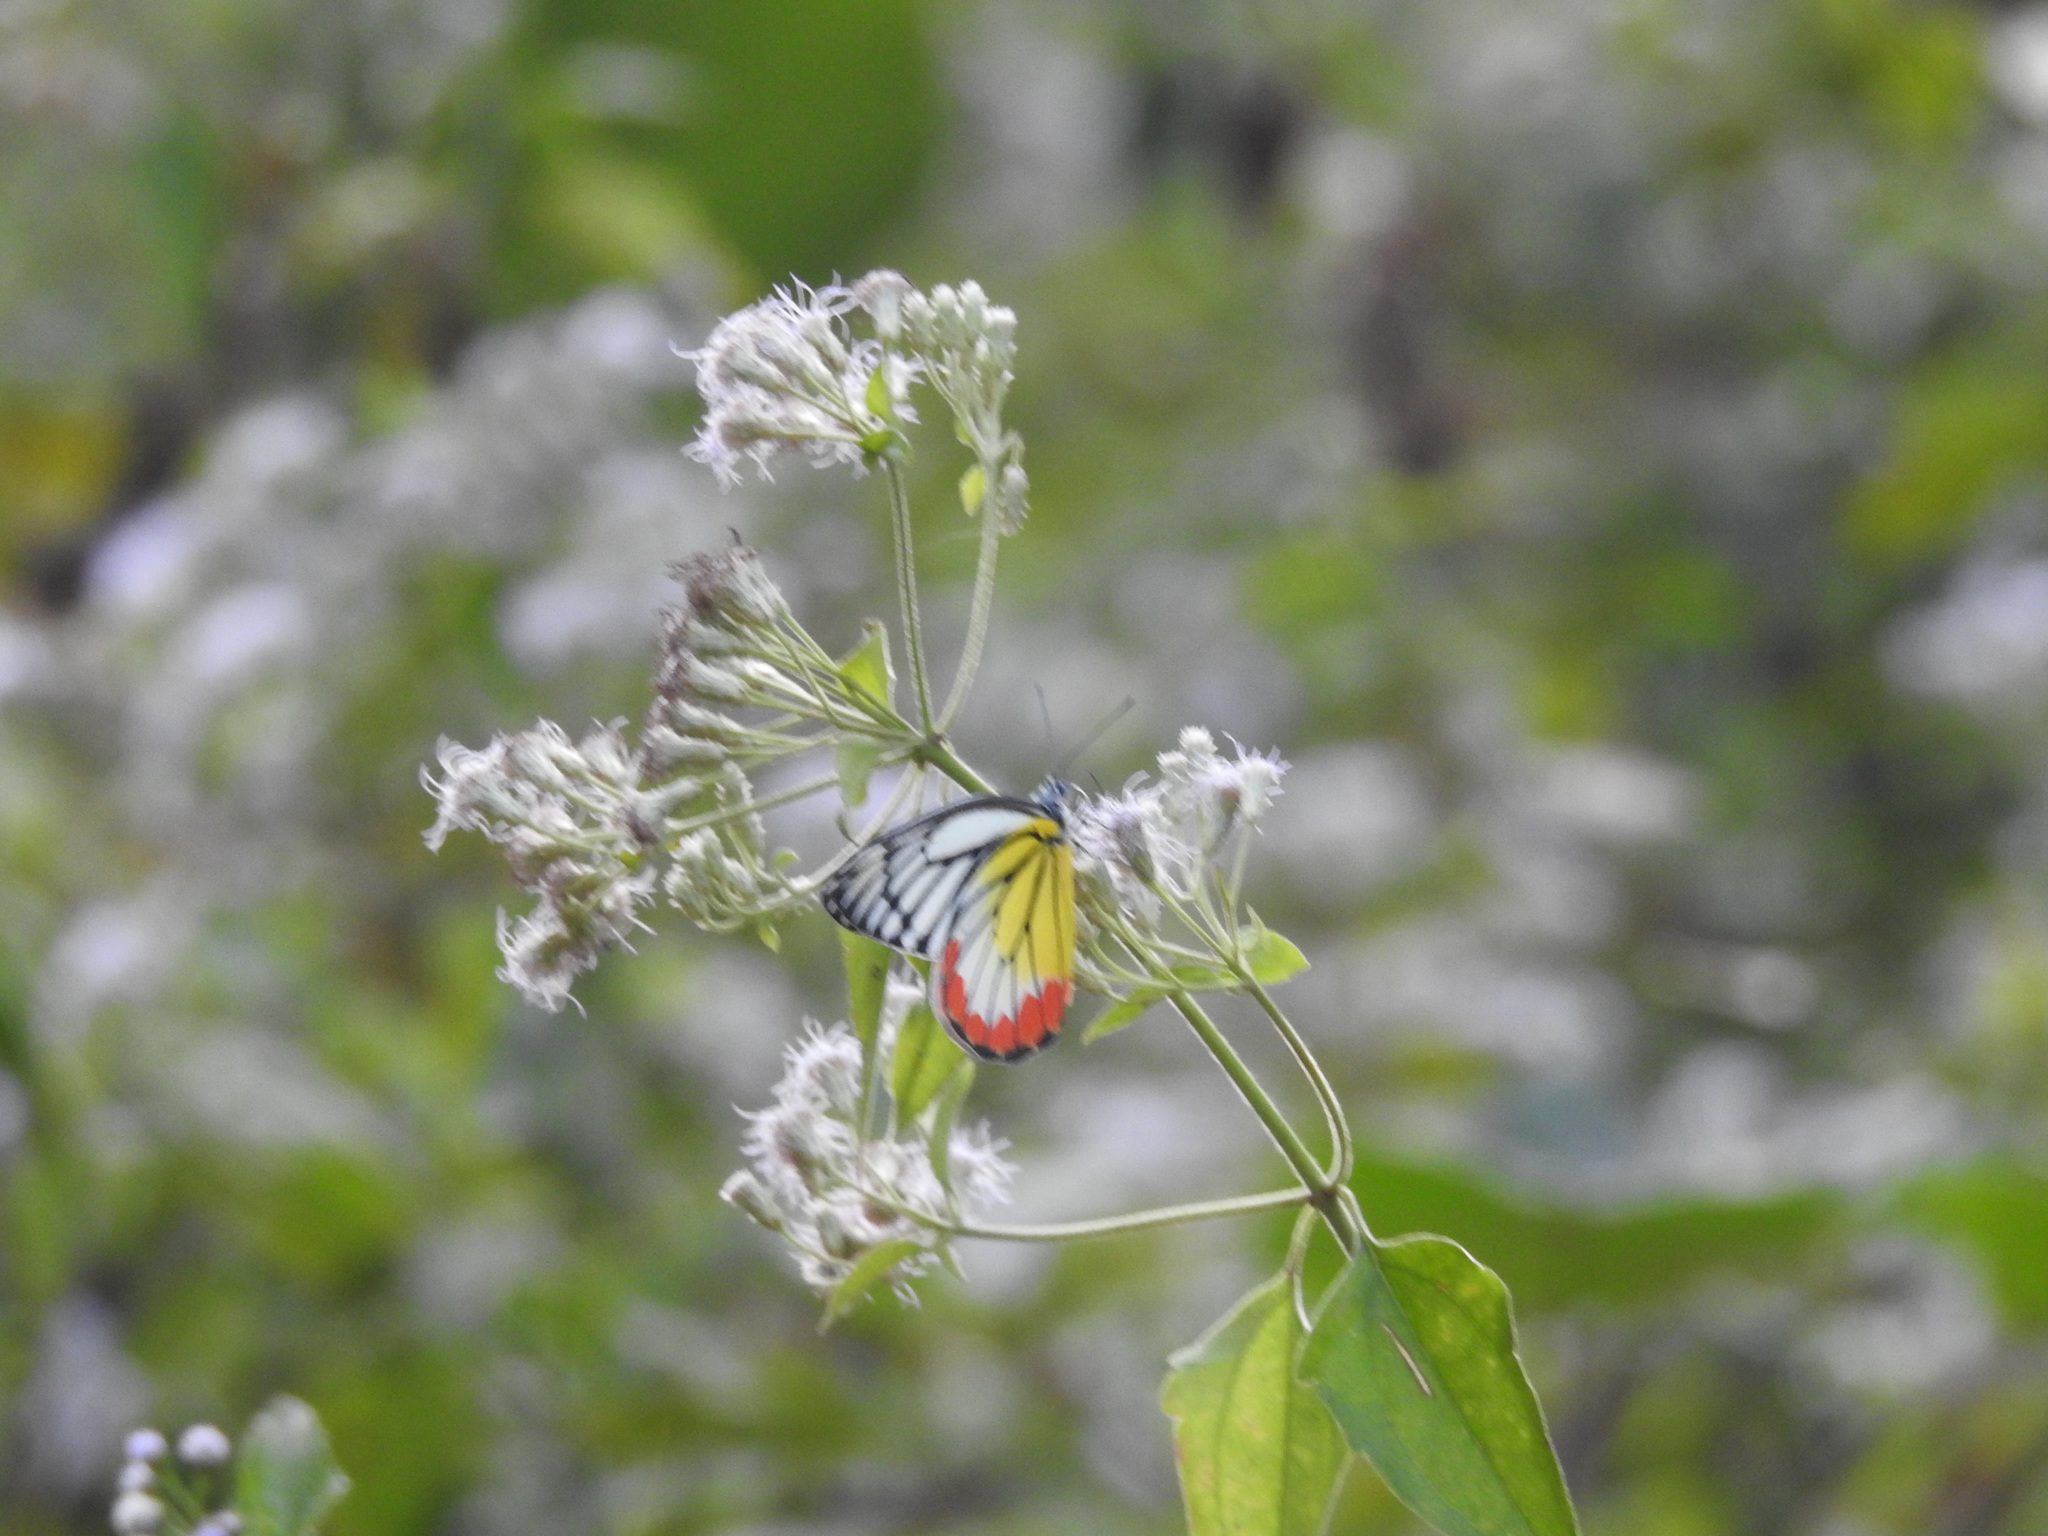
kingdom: Animalia
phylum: Arthropoda
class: Insecta
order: Lepidoptera
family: Pieridae
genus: Delias
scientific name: Delias hyparete
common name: Painted jezebel
